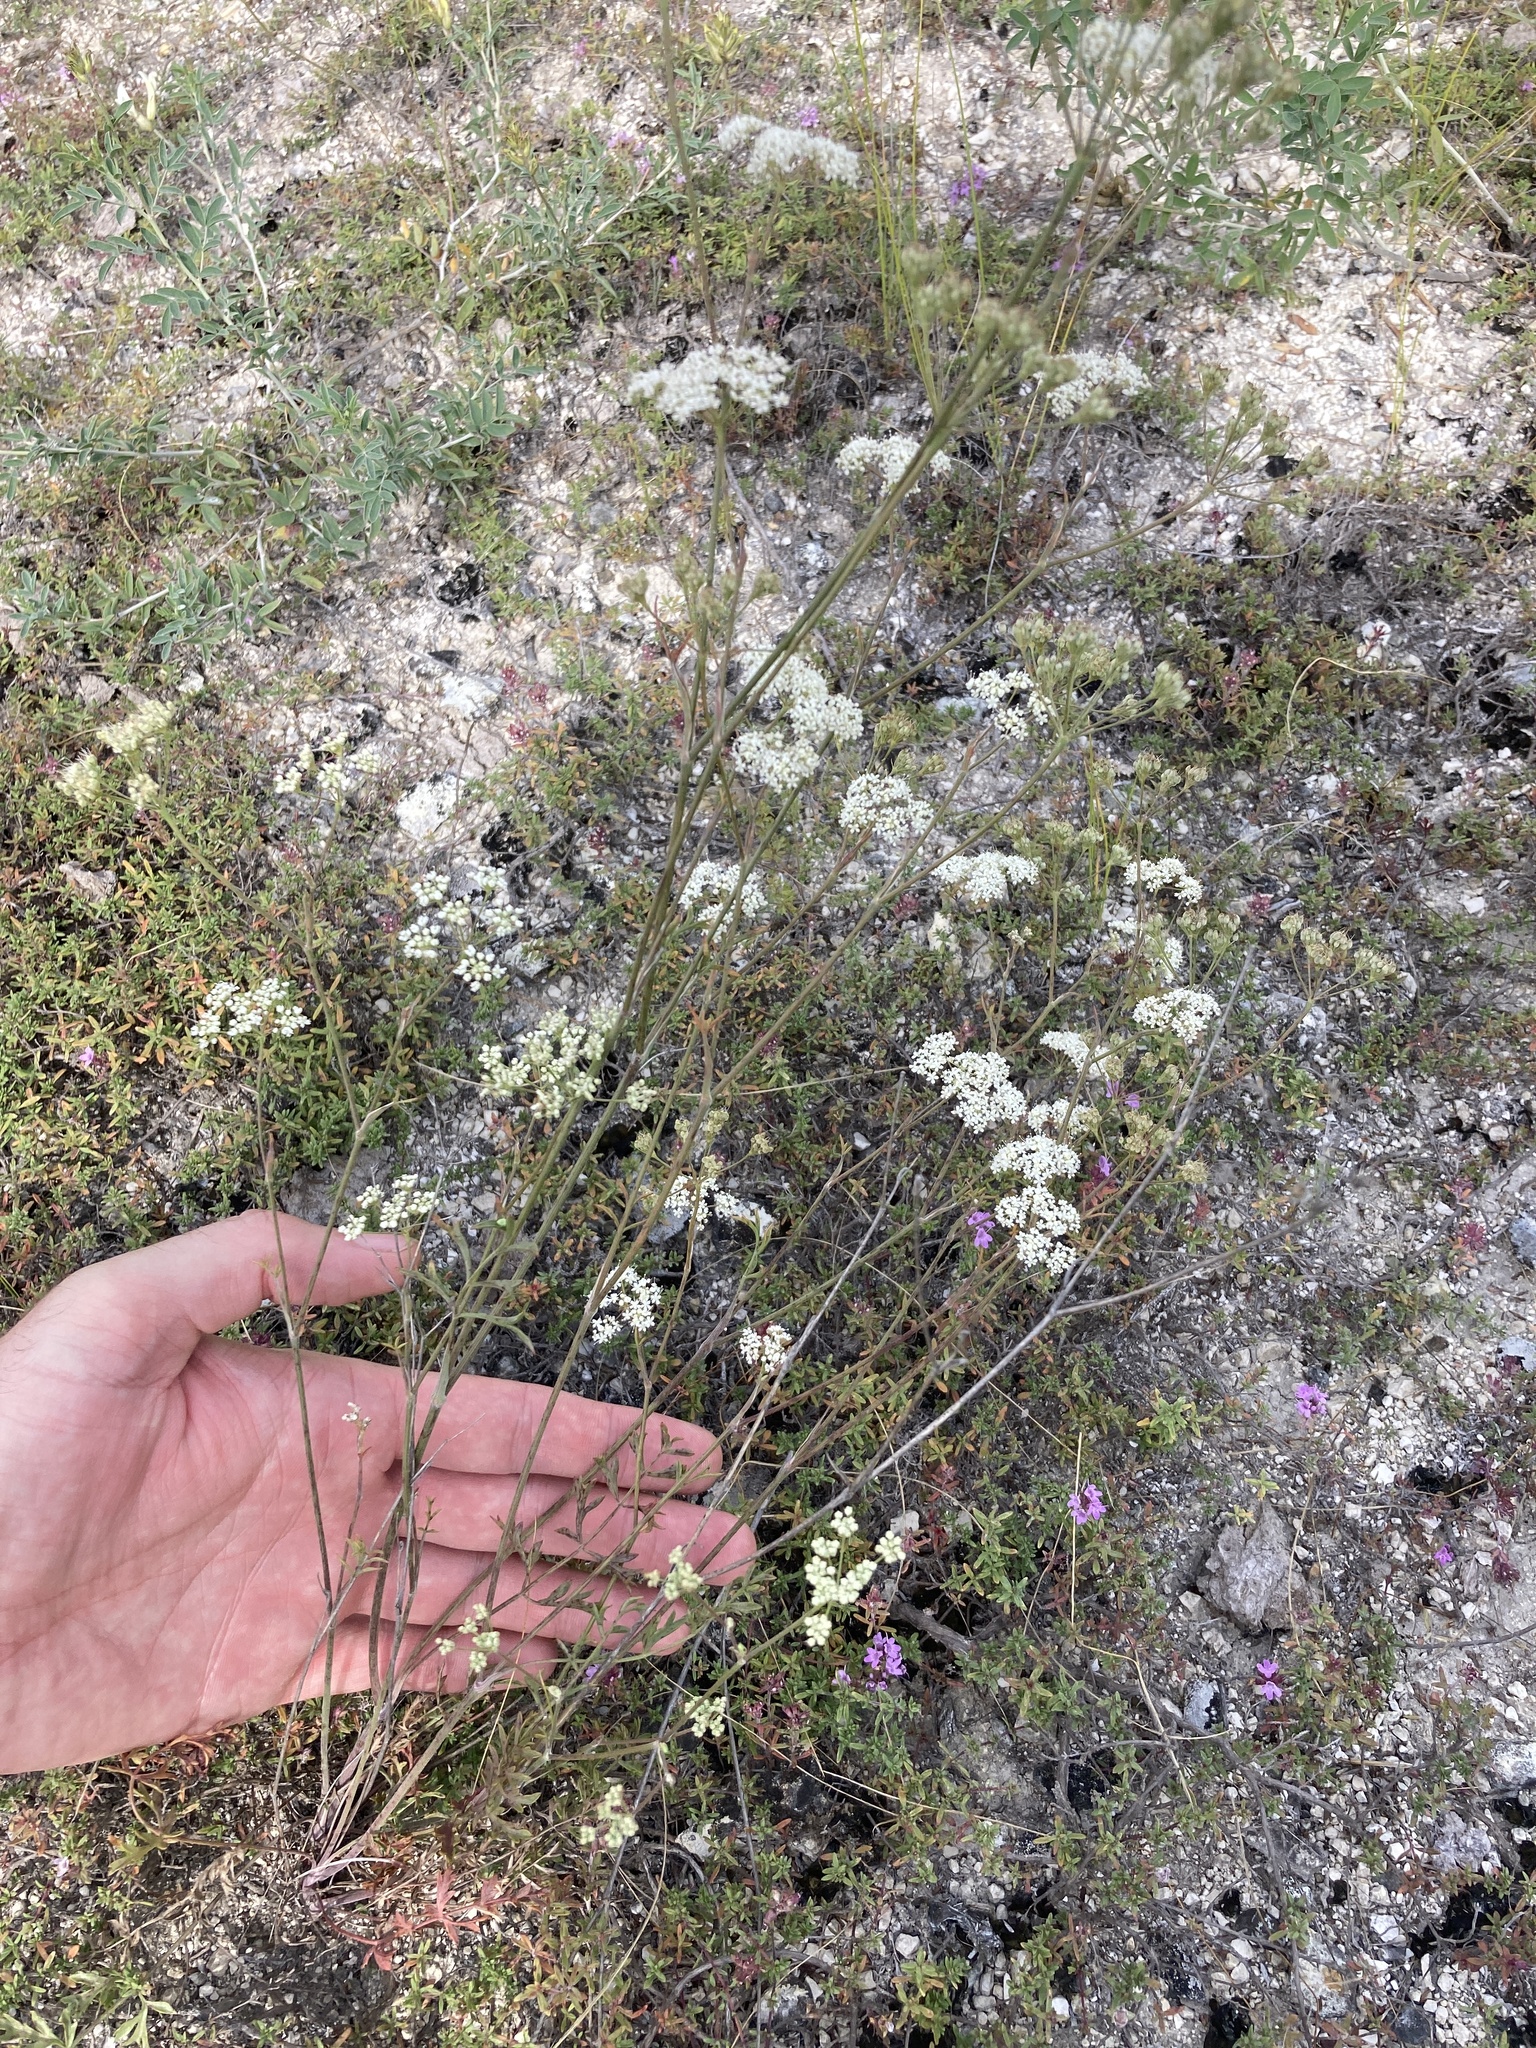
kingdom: Plantae
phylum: Tracheophyta
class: Magnoliopsida
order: Apiales
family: Apiaceae
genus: Pimpinella
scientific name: Pimpinella tragium
